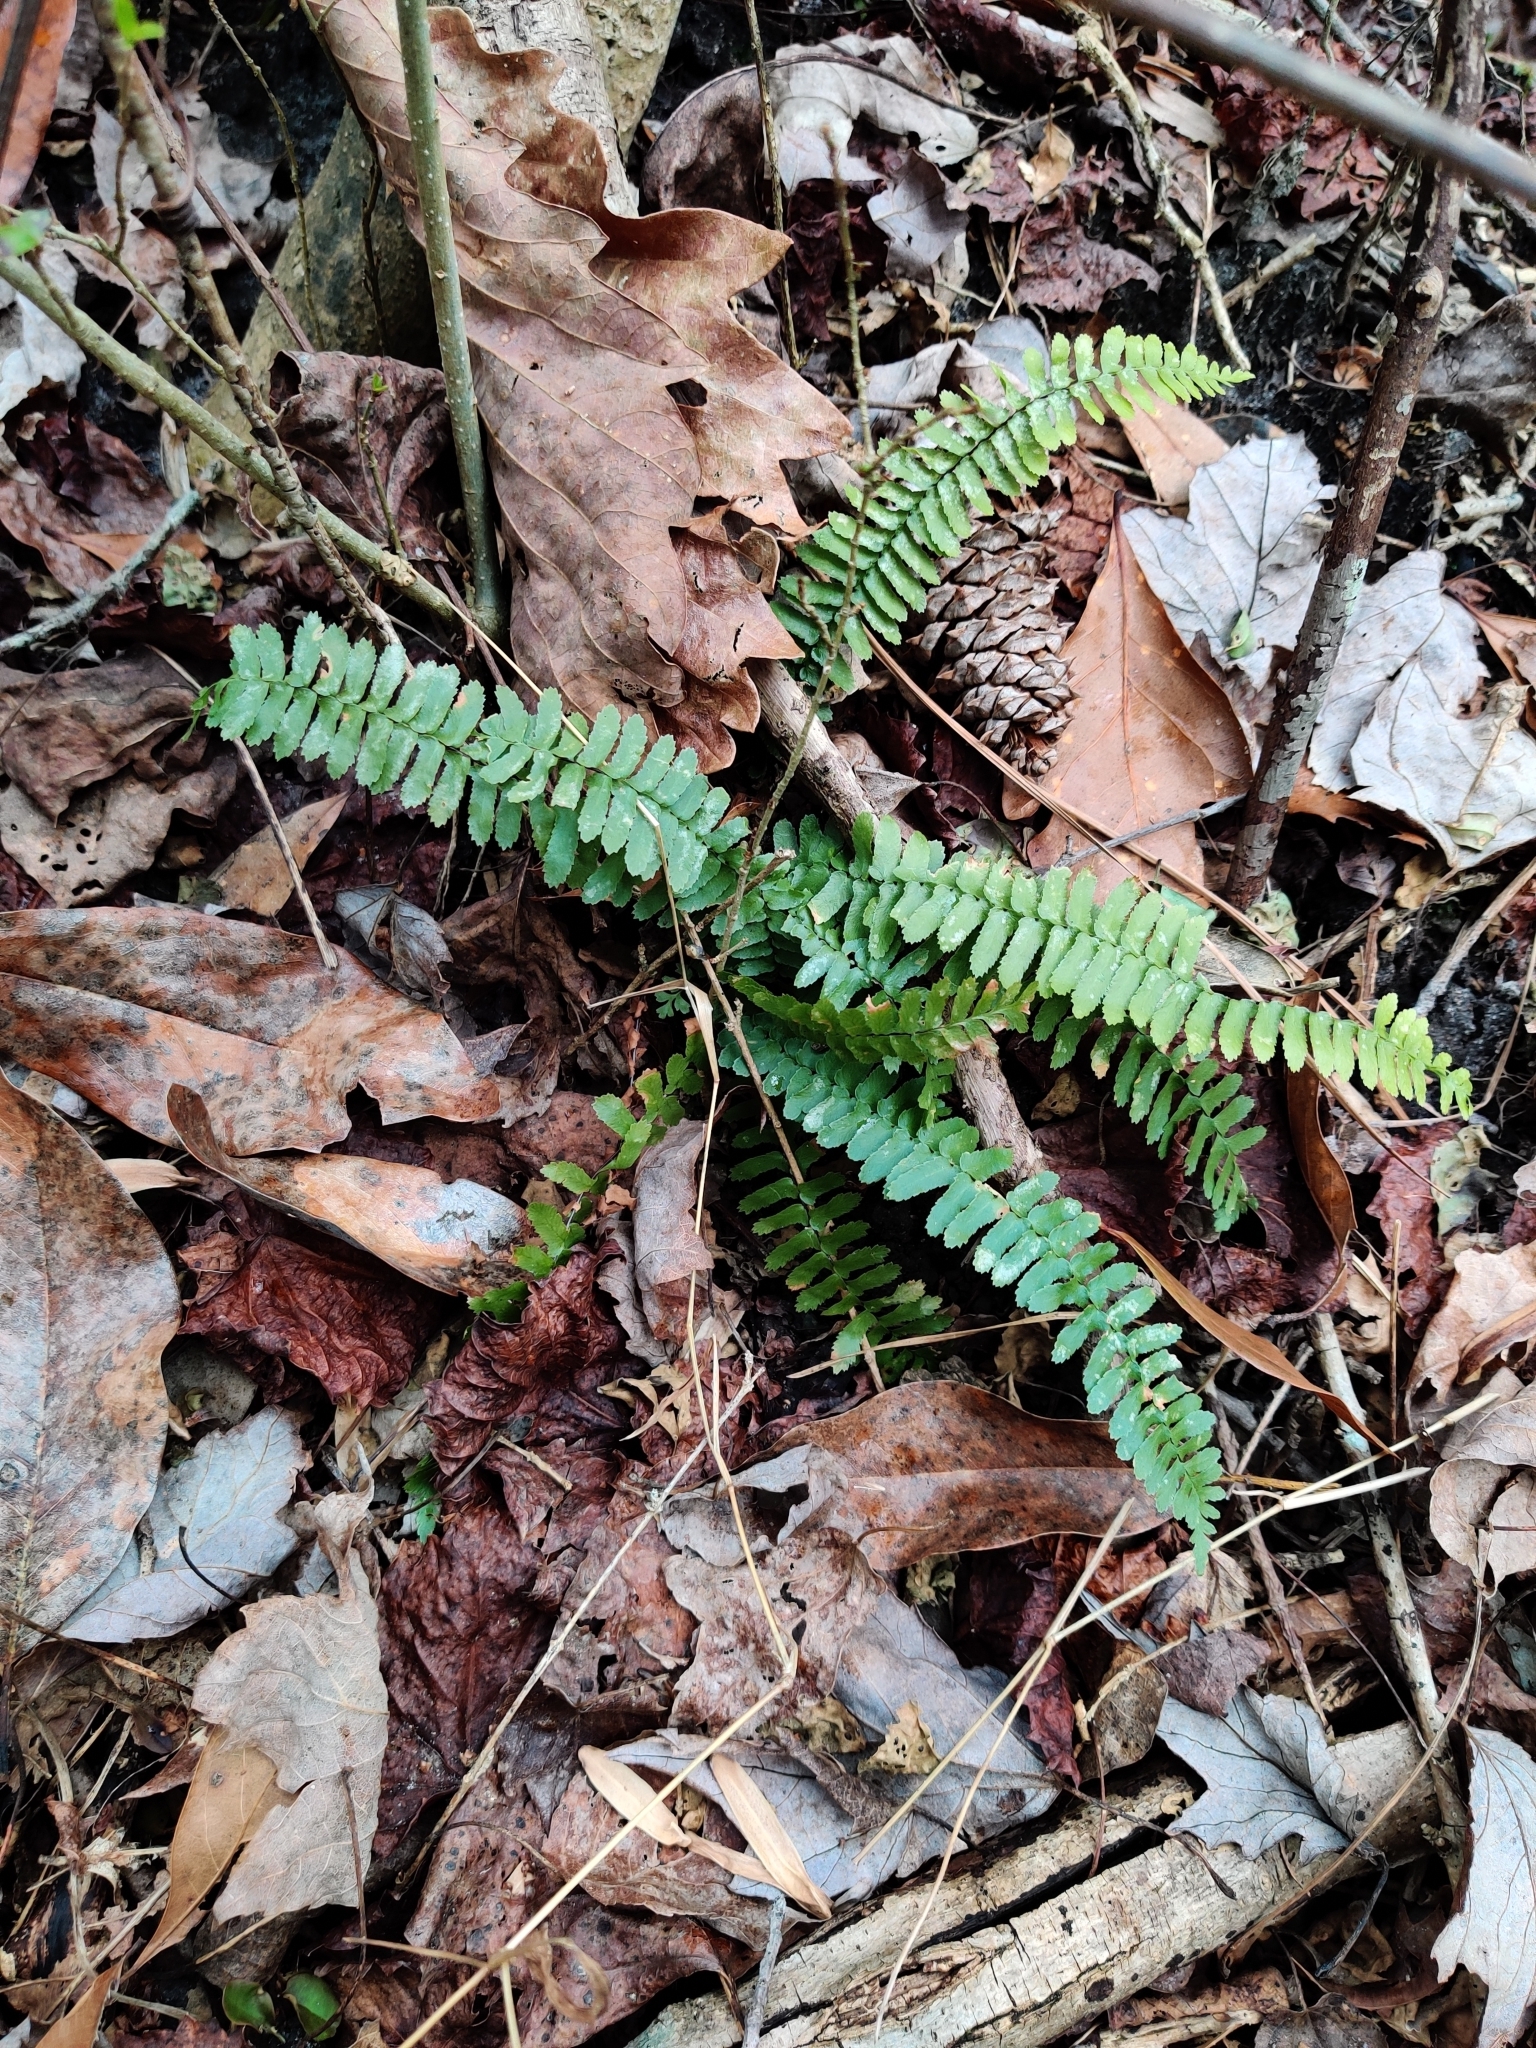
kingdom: Plantae
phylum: Tracheophyta
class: Polypodiopsida
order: Polypodiales
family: Aspleniaceae
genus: Asplenium
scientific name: Asplenium platyneuron
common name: Ebony spleenwort
